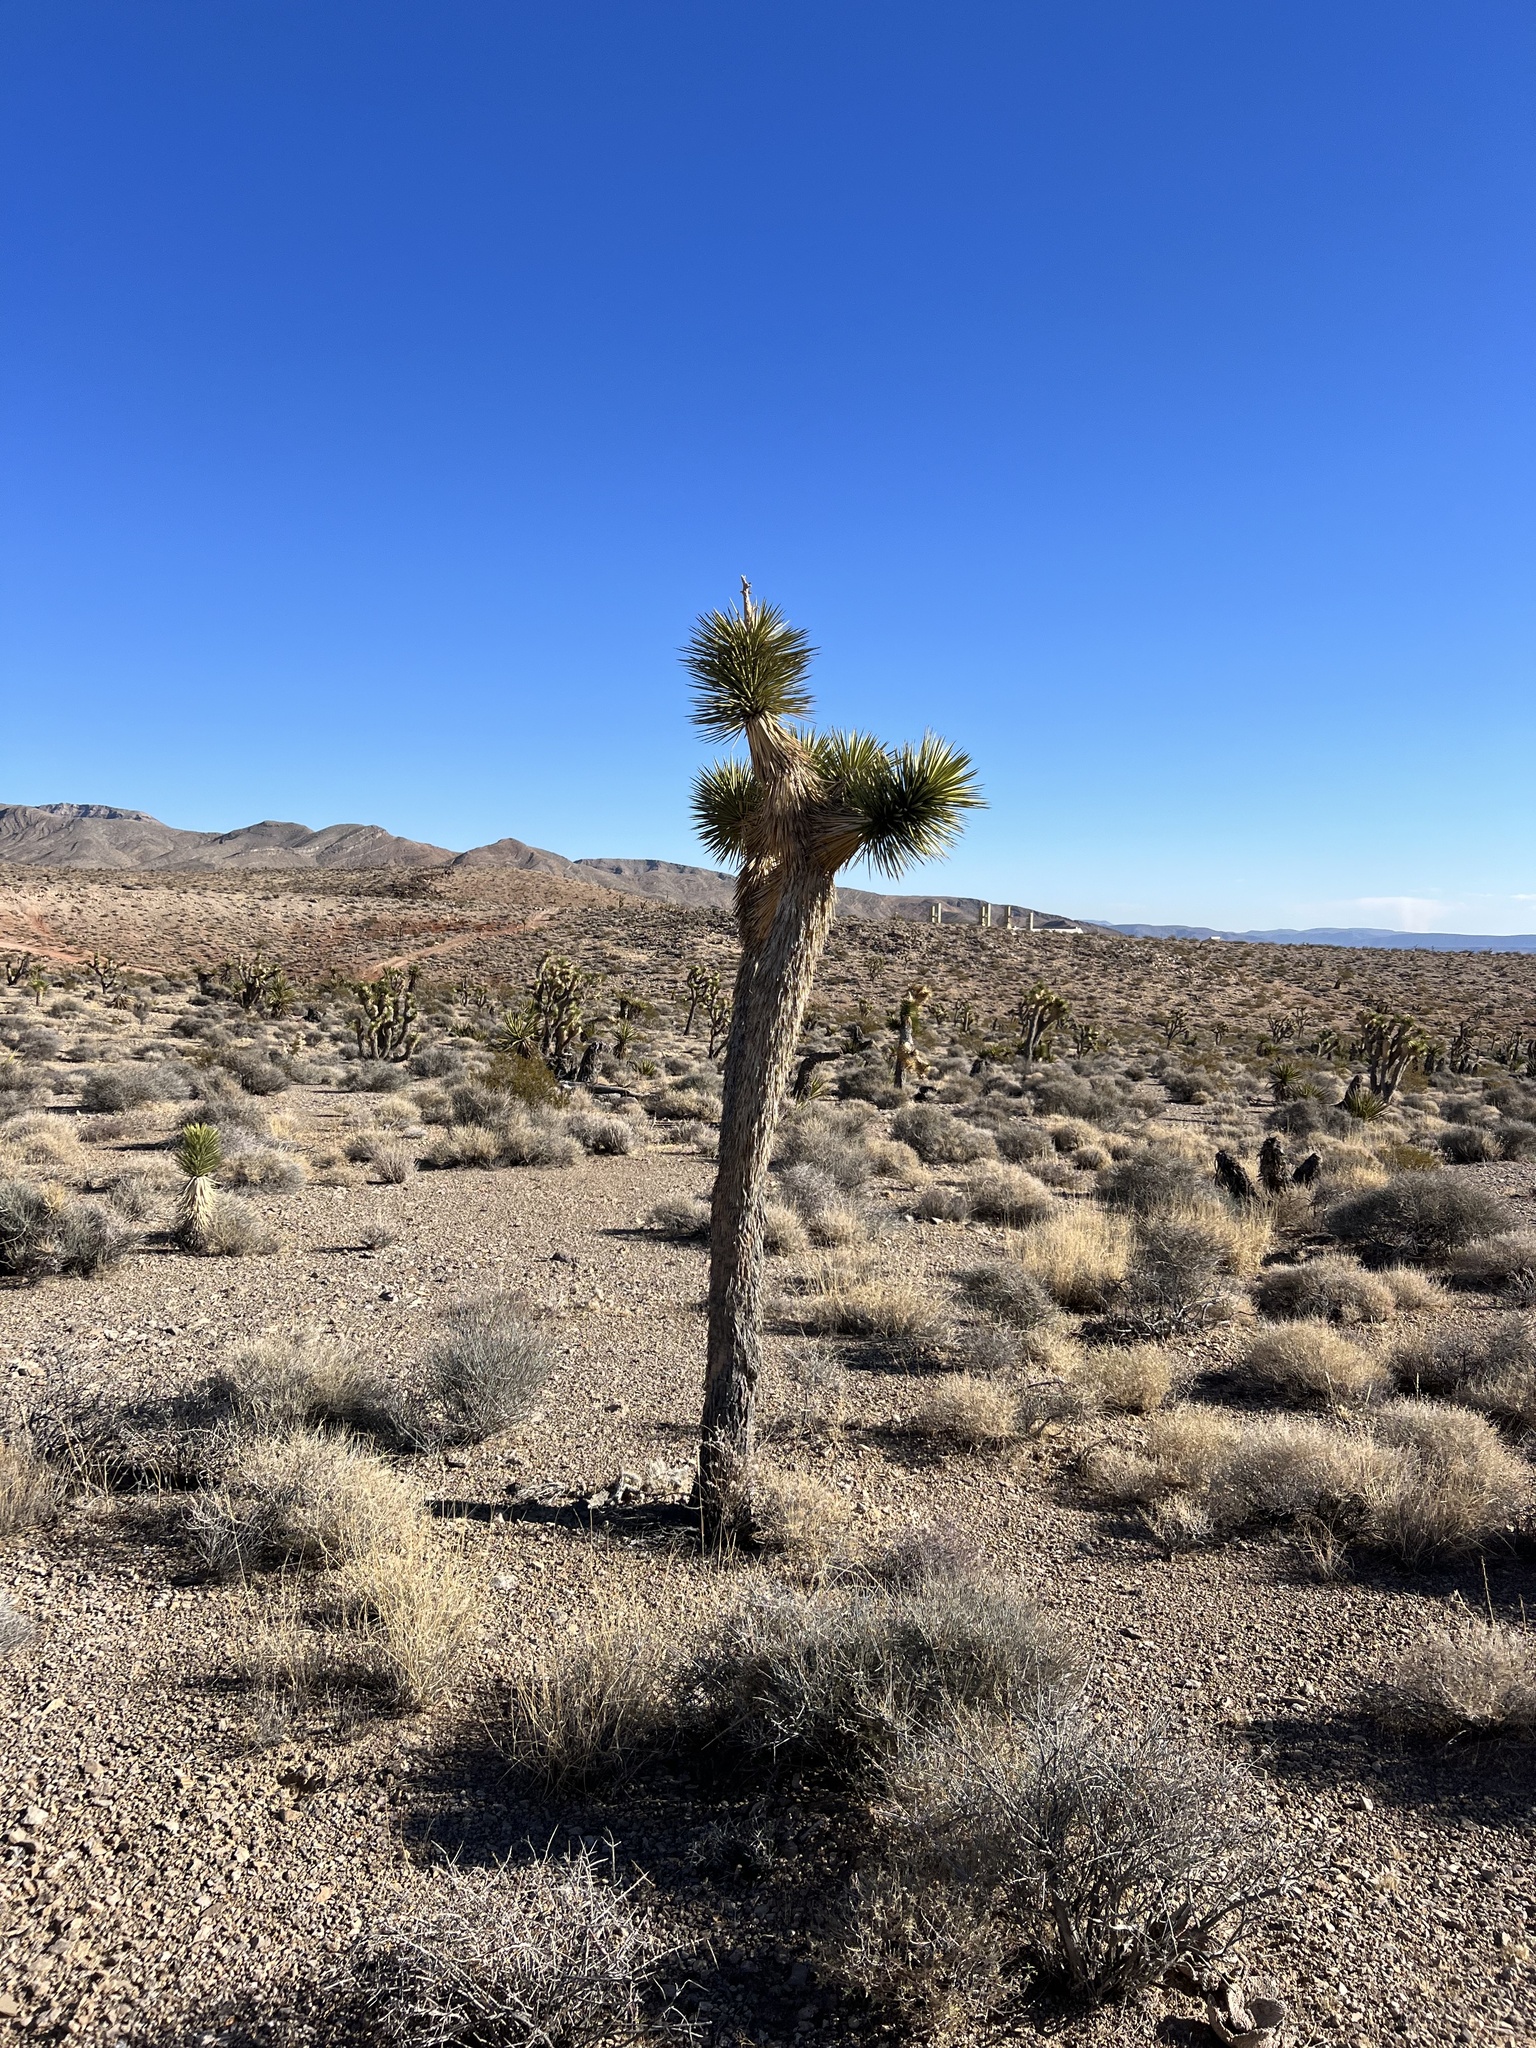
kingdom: Plantae
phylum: Tracheophyta
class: Liliopsida
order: Asparagales
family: Asparagaceae
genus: Yucca
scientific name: Yucca brevifolia
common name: Joshua tree
